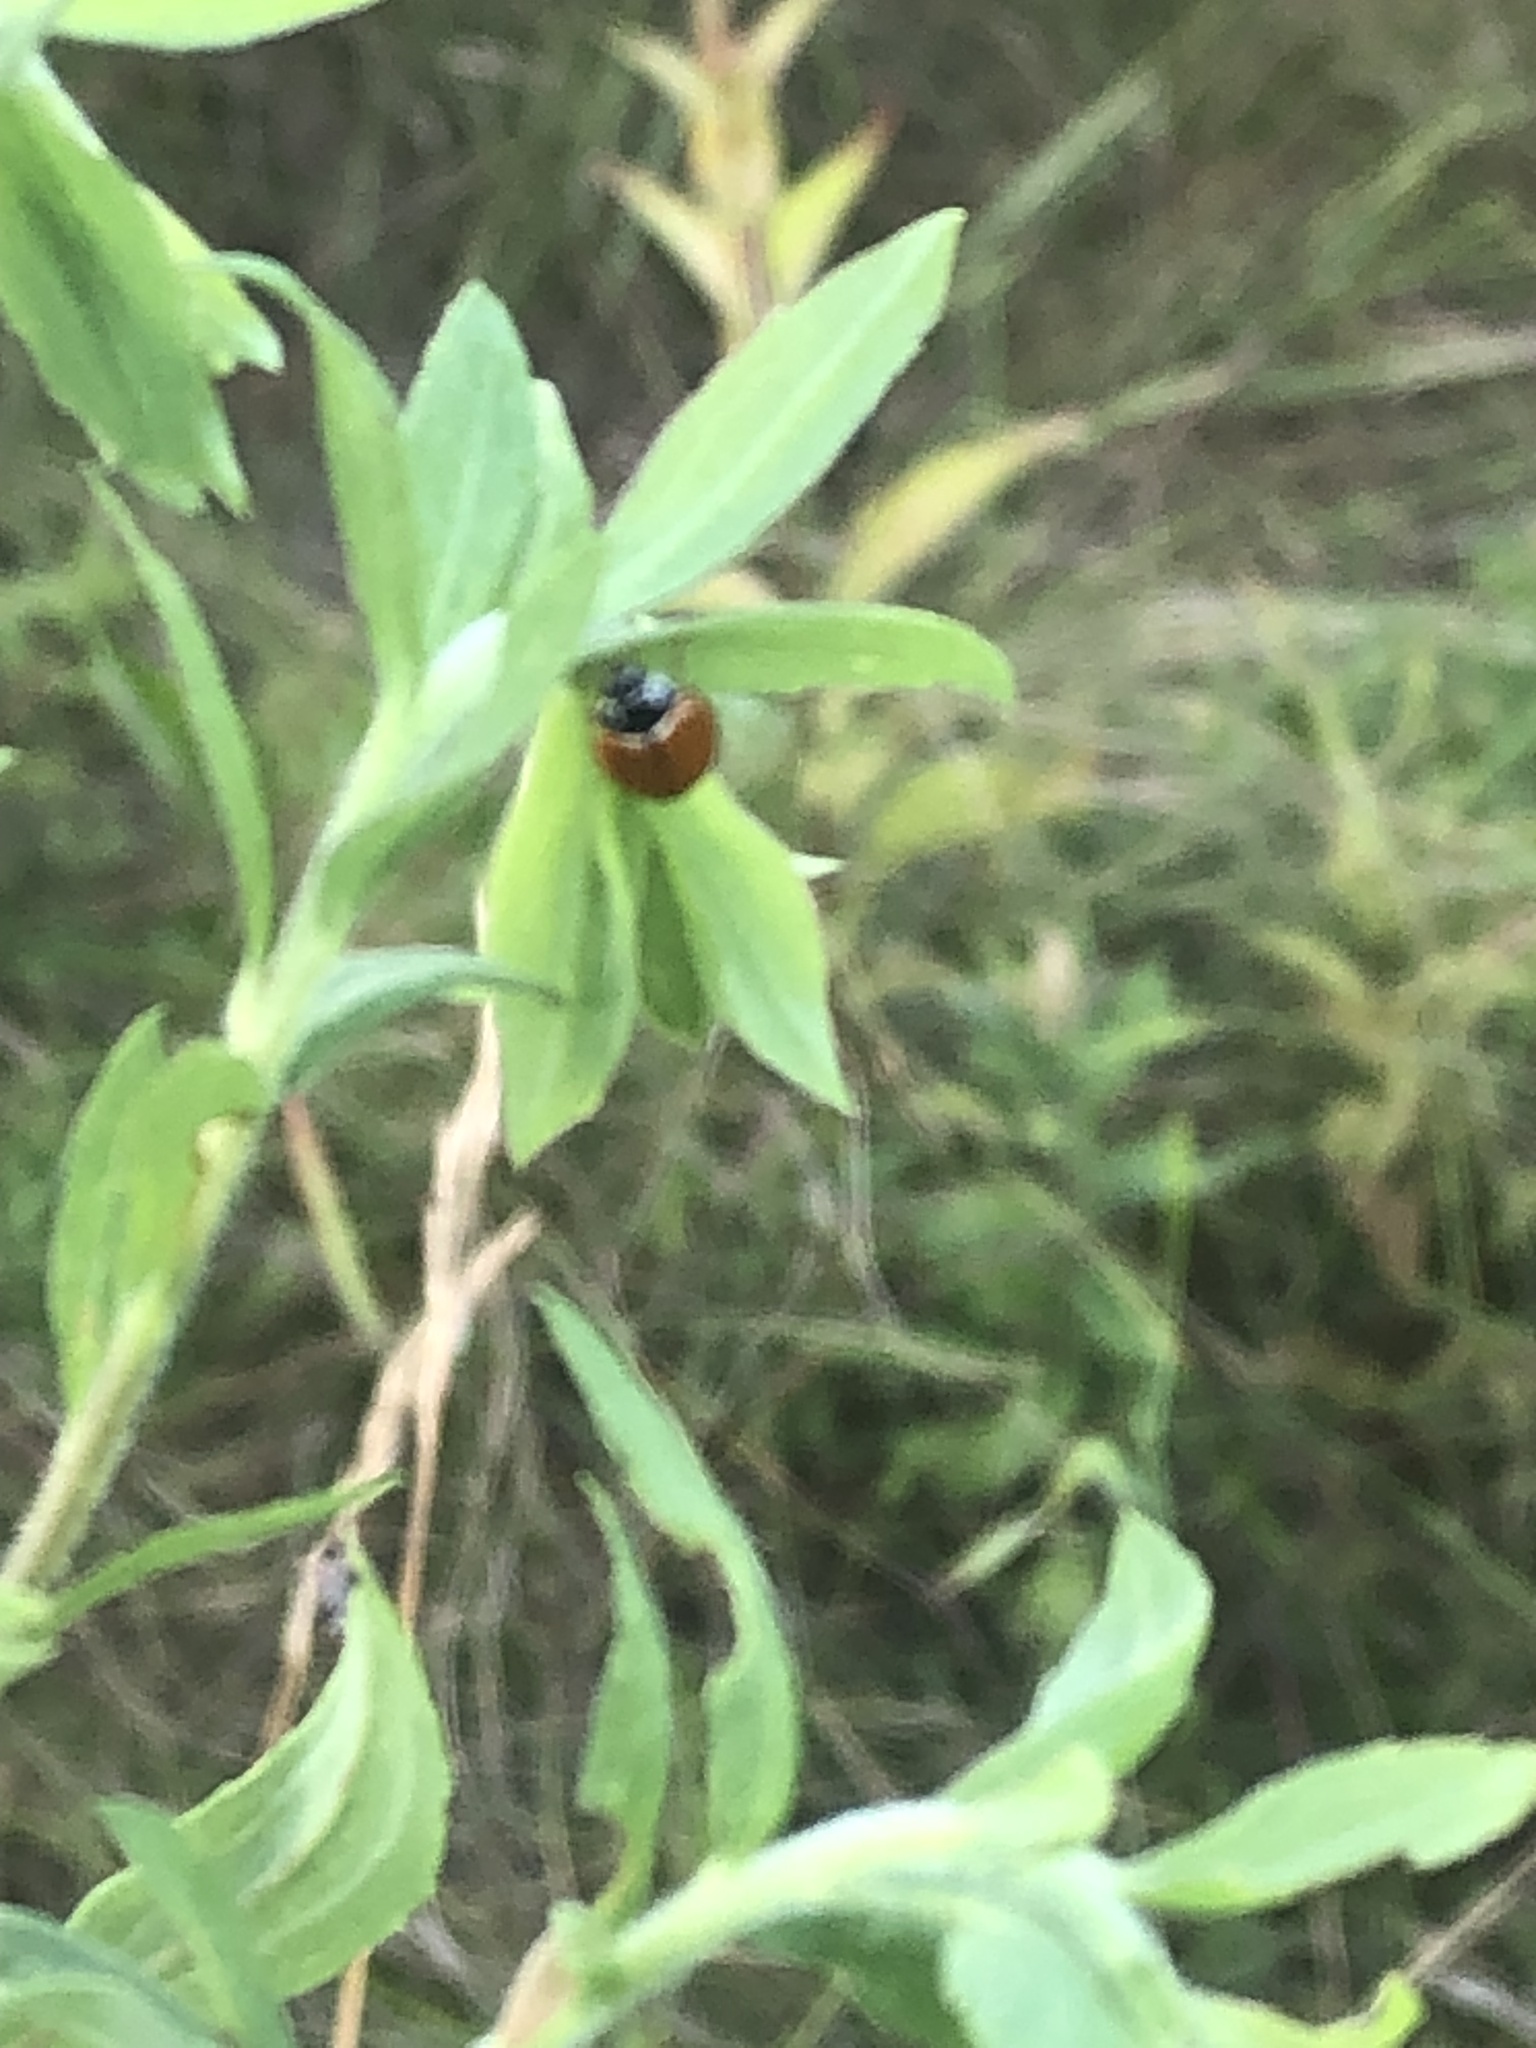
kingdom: Animalia
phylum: Arthropoda
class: Insecta
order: Coleoptera
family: Coccinellidae
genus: Cycloneda
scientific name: Cycloneda munda
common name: Polished lady beetle
